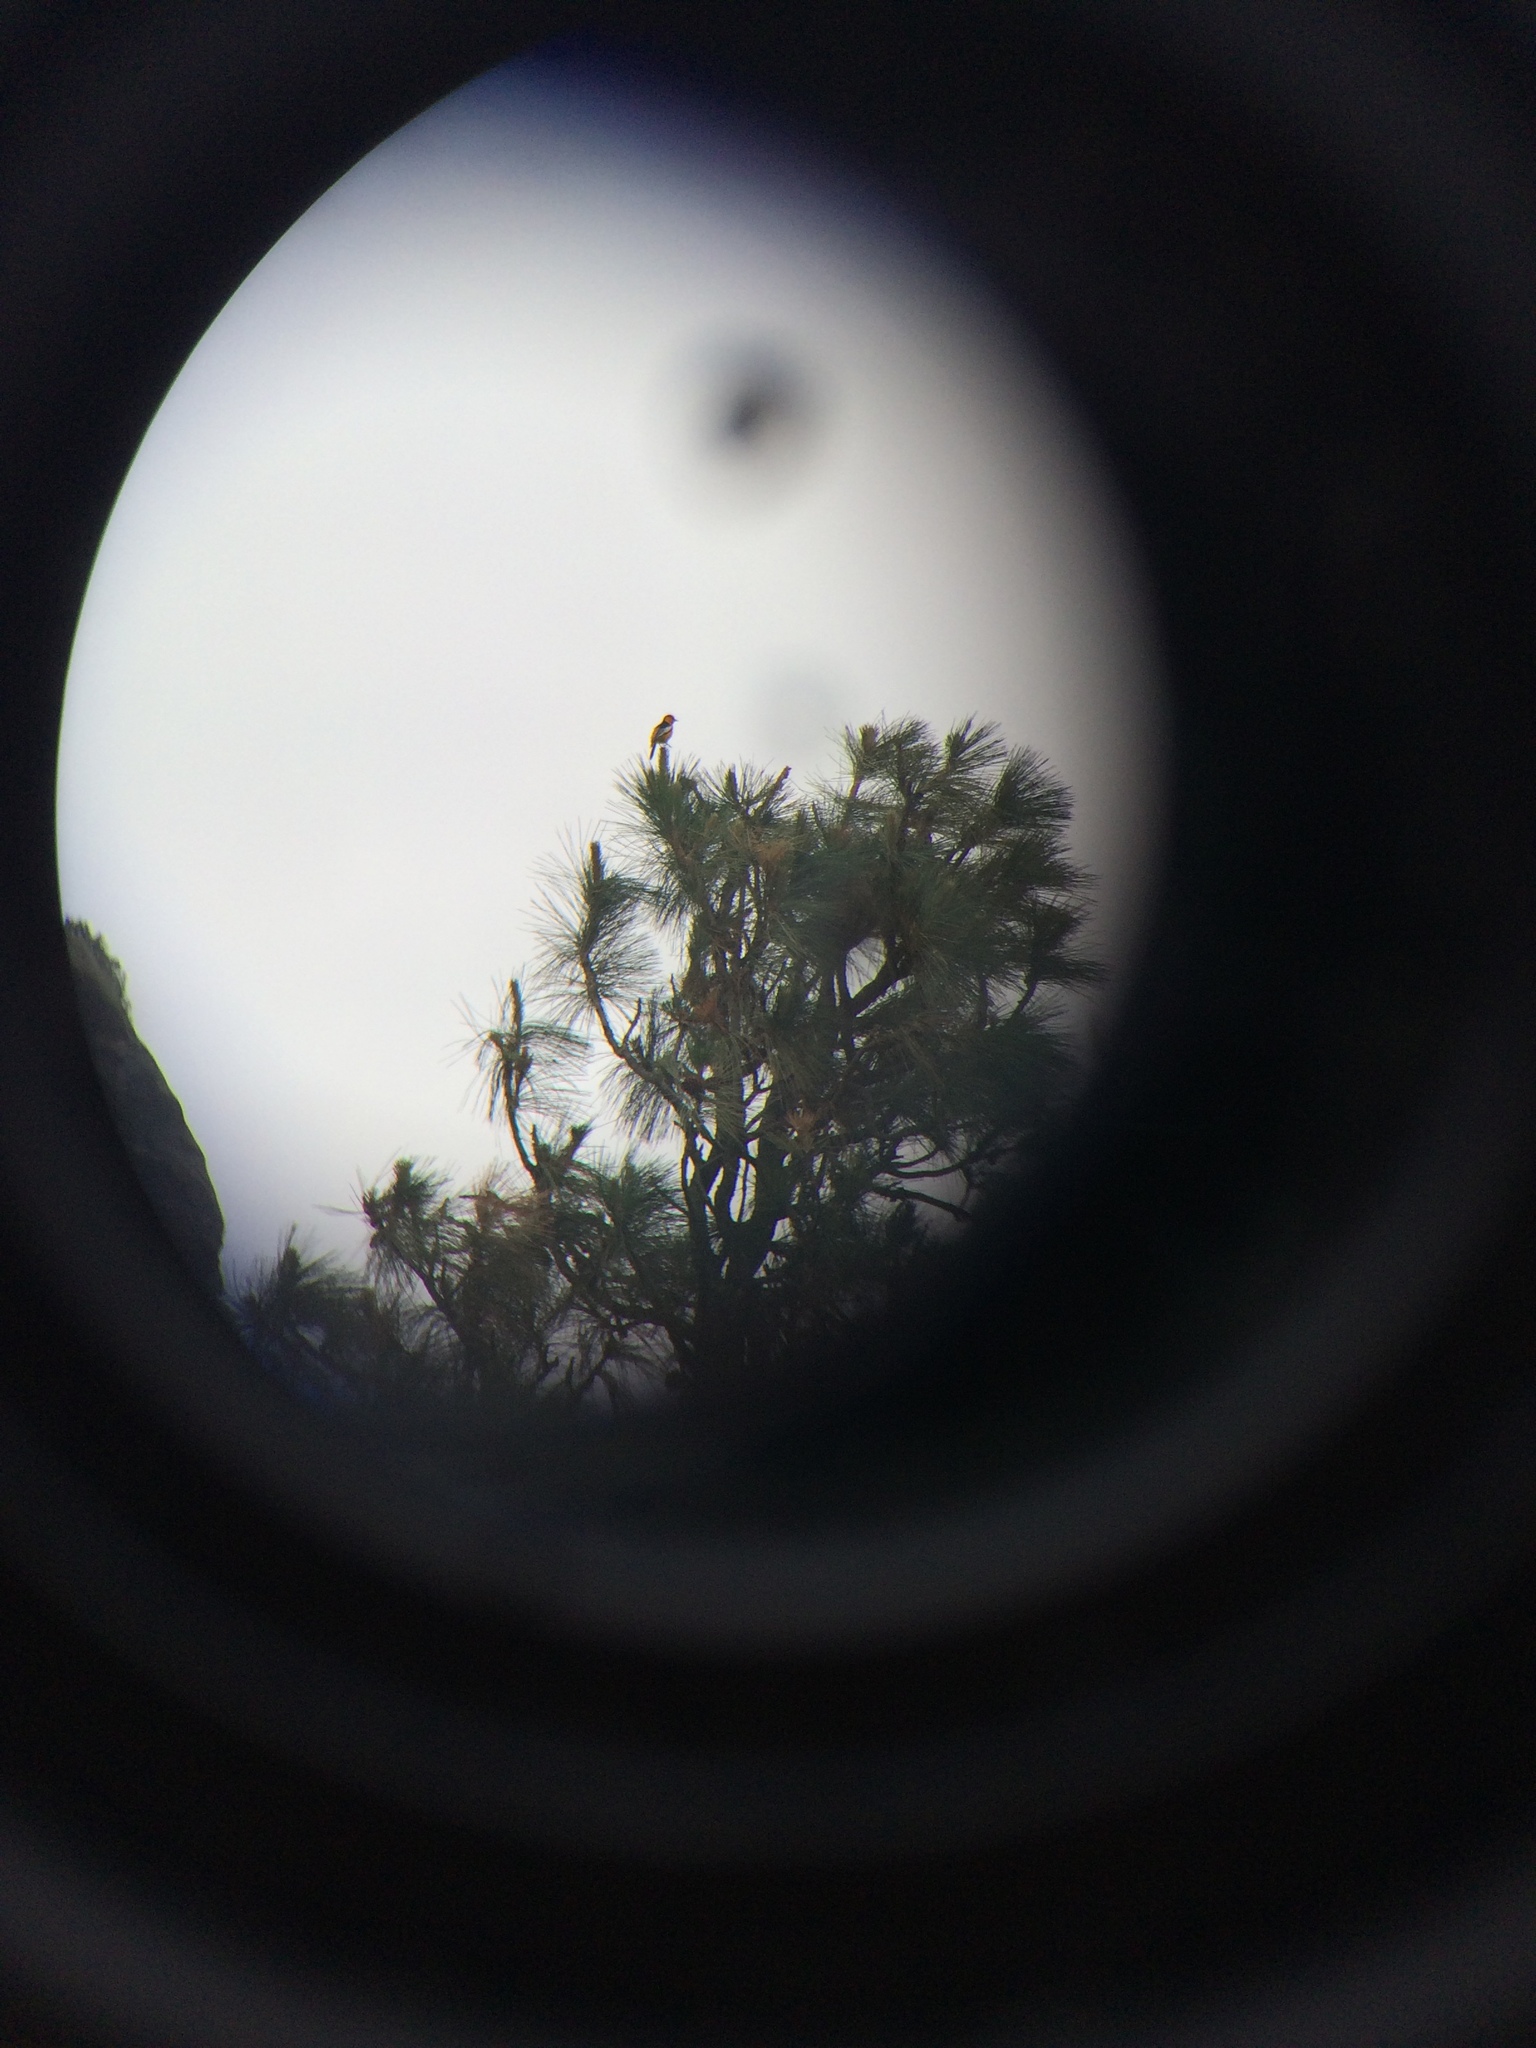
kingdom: Animalia
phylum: Chordata
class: Aves
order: Passeriformes
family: Icteridae
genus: Icterus
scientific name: Icterus bullockii
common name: Bullock's oriole
